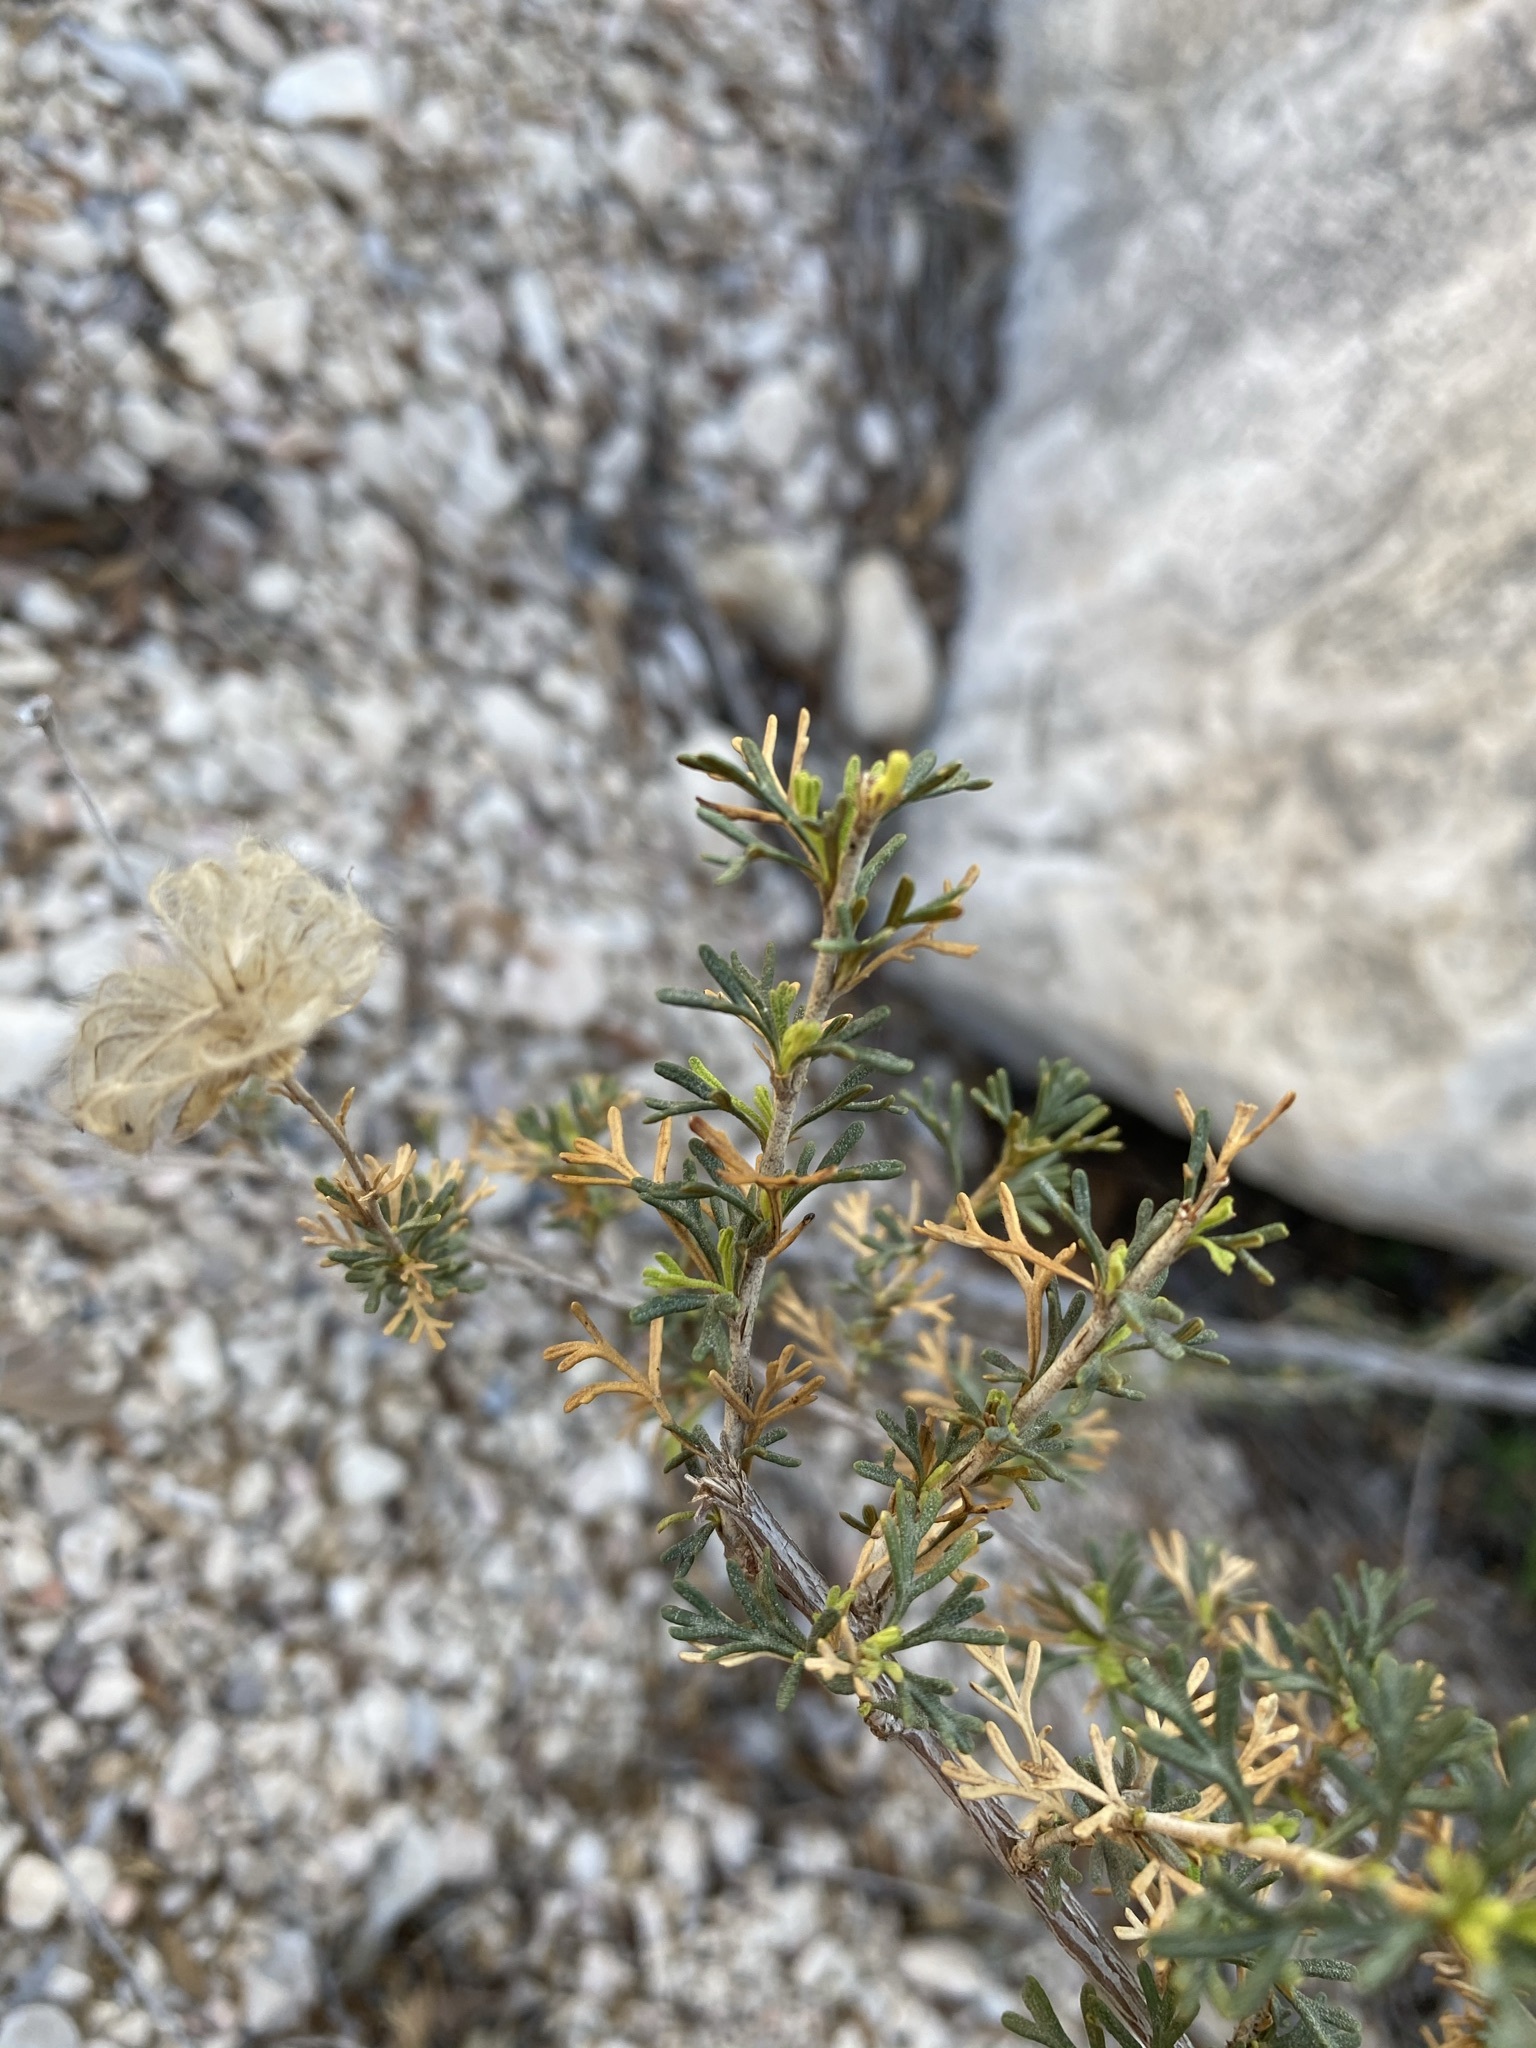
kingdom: Plantae
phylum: Tracheophyta
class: Magnoliopsida
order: Rosales
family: Rosaceae
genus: Fallugia
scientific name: Fallugia paradoxa
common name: Apache-plume
